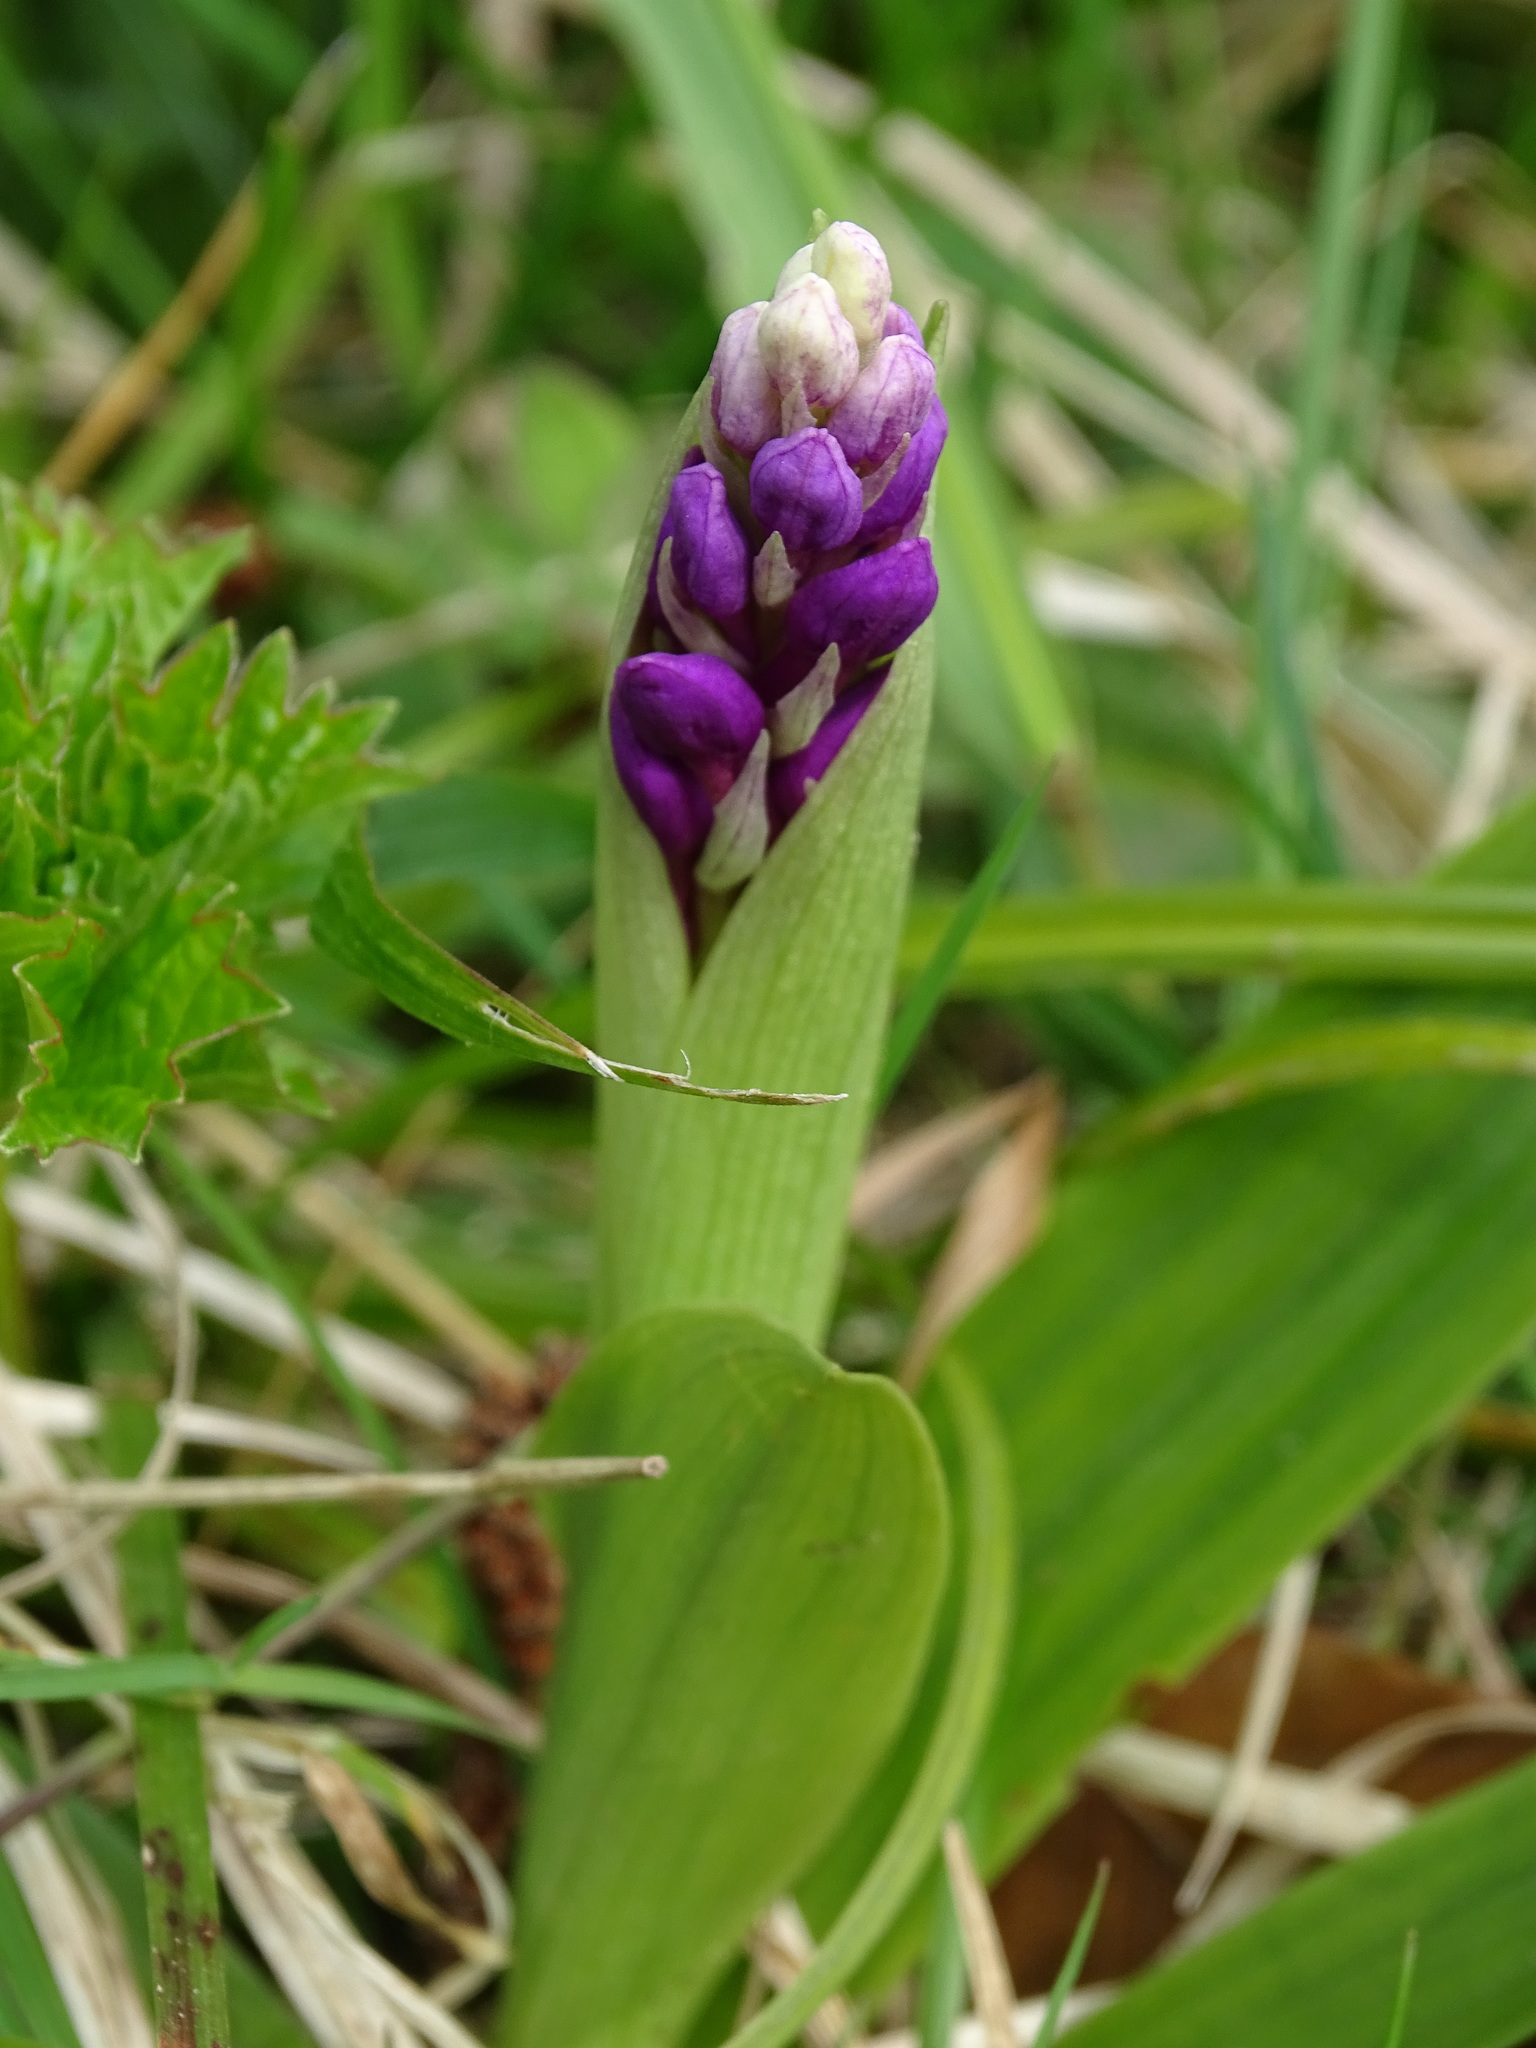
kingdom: Plantae
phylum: Tracheophyta
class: Liliopsida
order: Asparagales
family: Orchidaceae
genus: Orchis
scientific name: Orchis mascula
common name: Early-purple orchid
